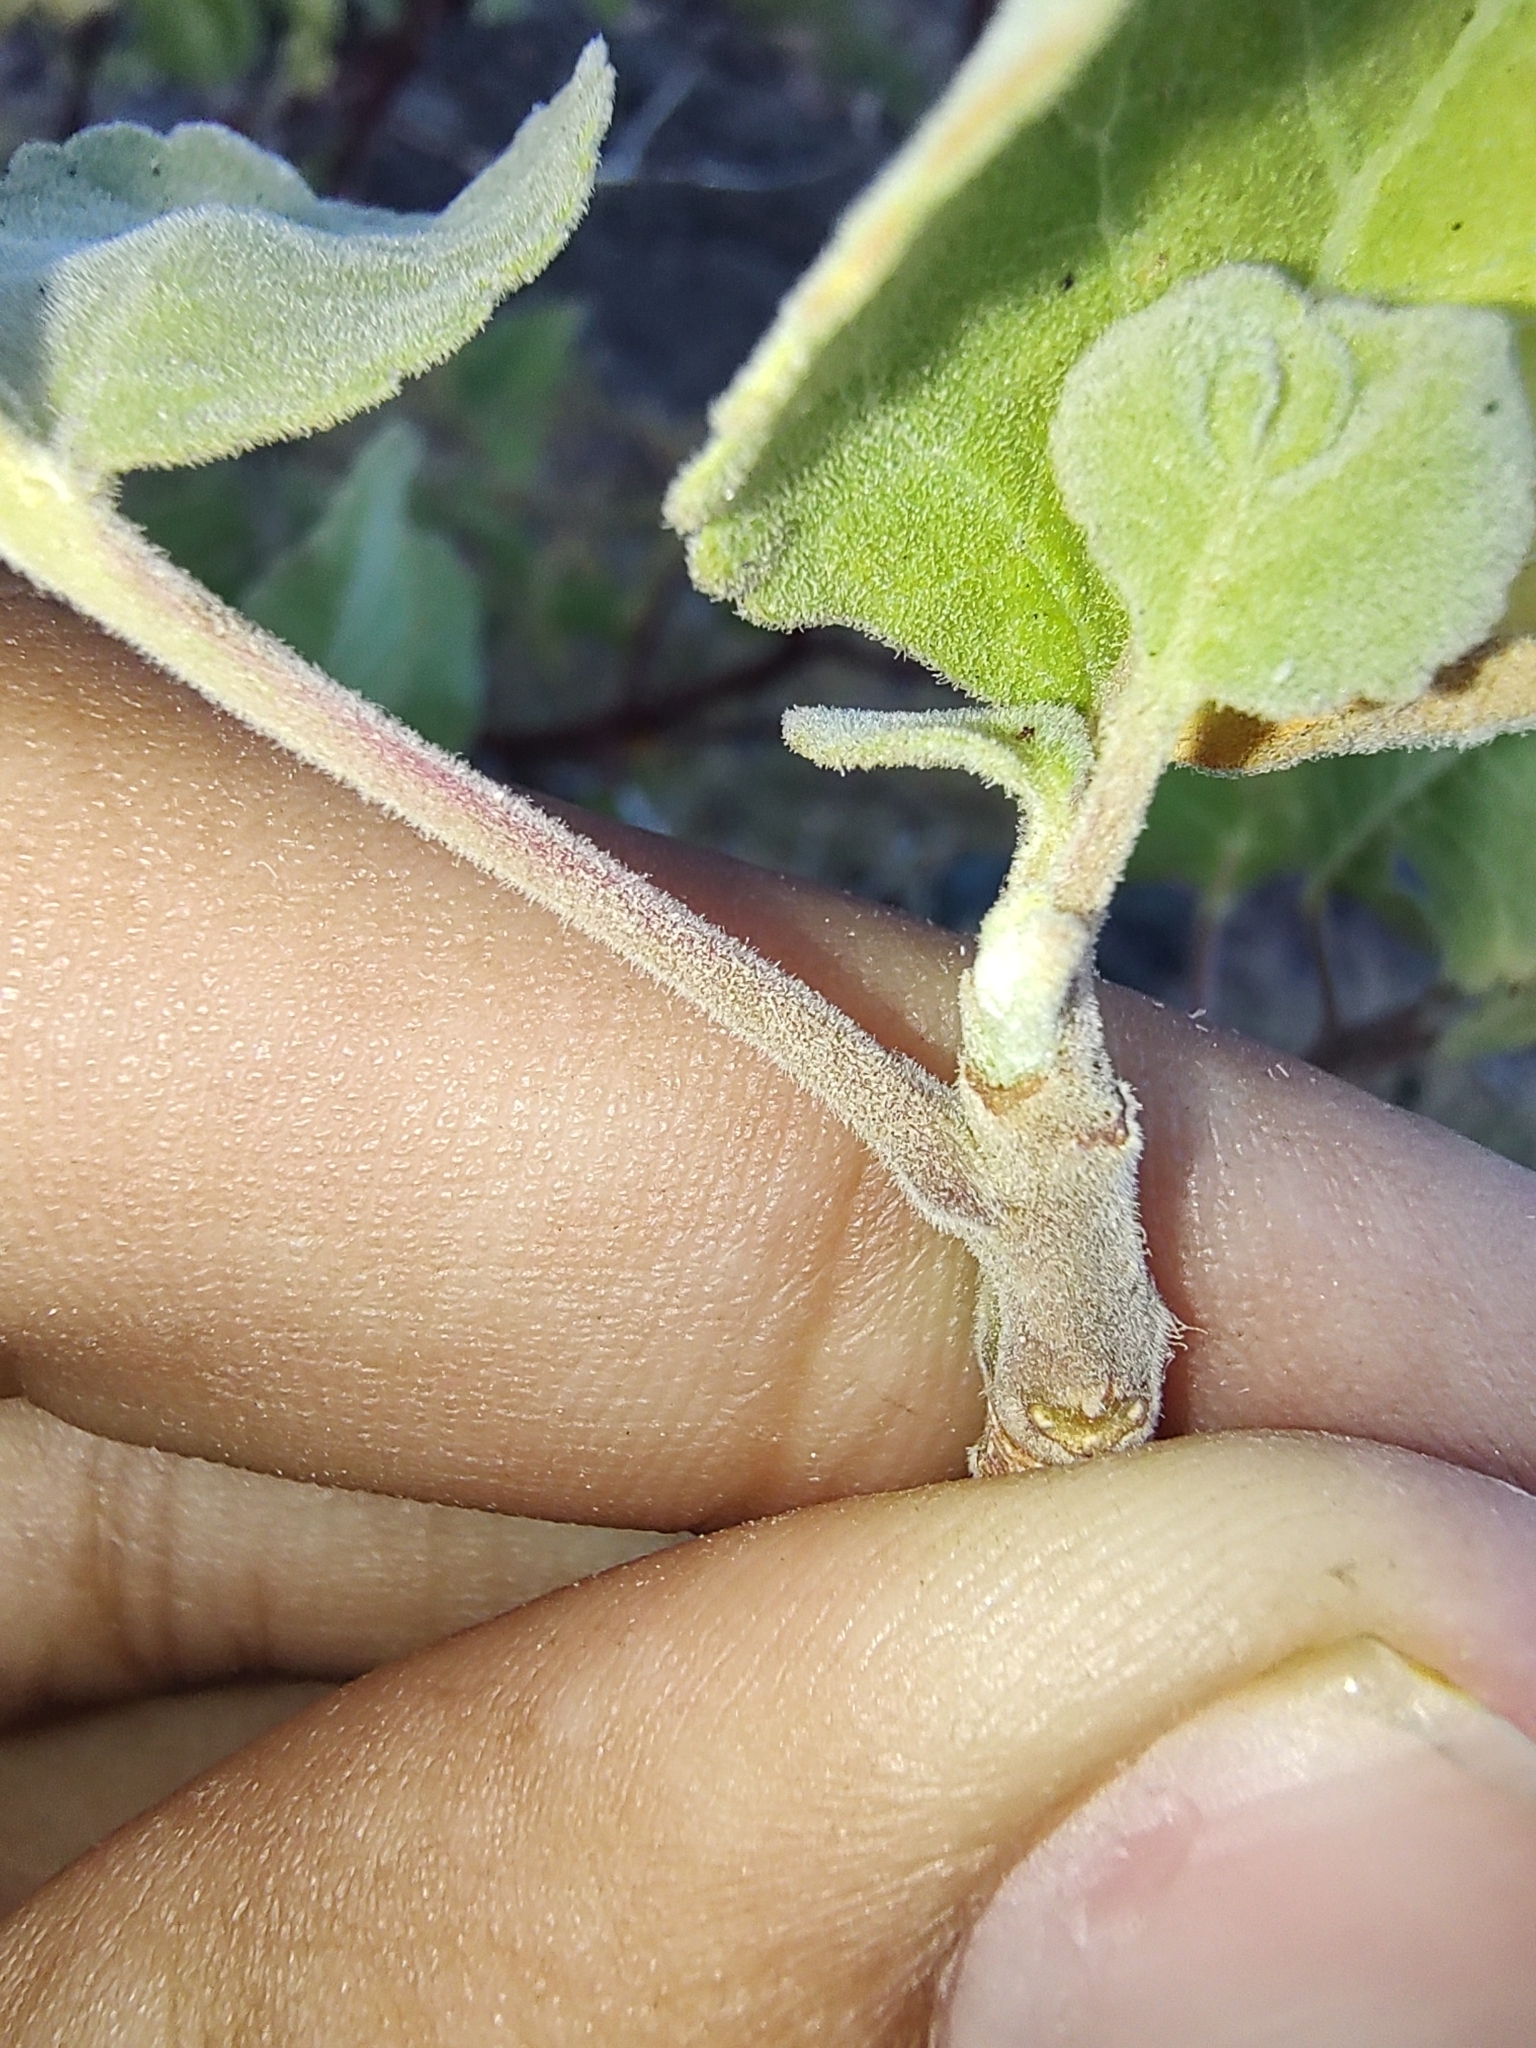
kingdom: Plantae
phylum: Tracheophyta
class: Magnoliopsida
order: Sapindales
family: Burseraceae
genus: Bursera
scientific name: Bursera hindsiana
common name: Red elephant tree
